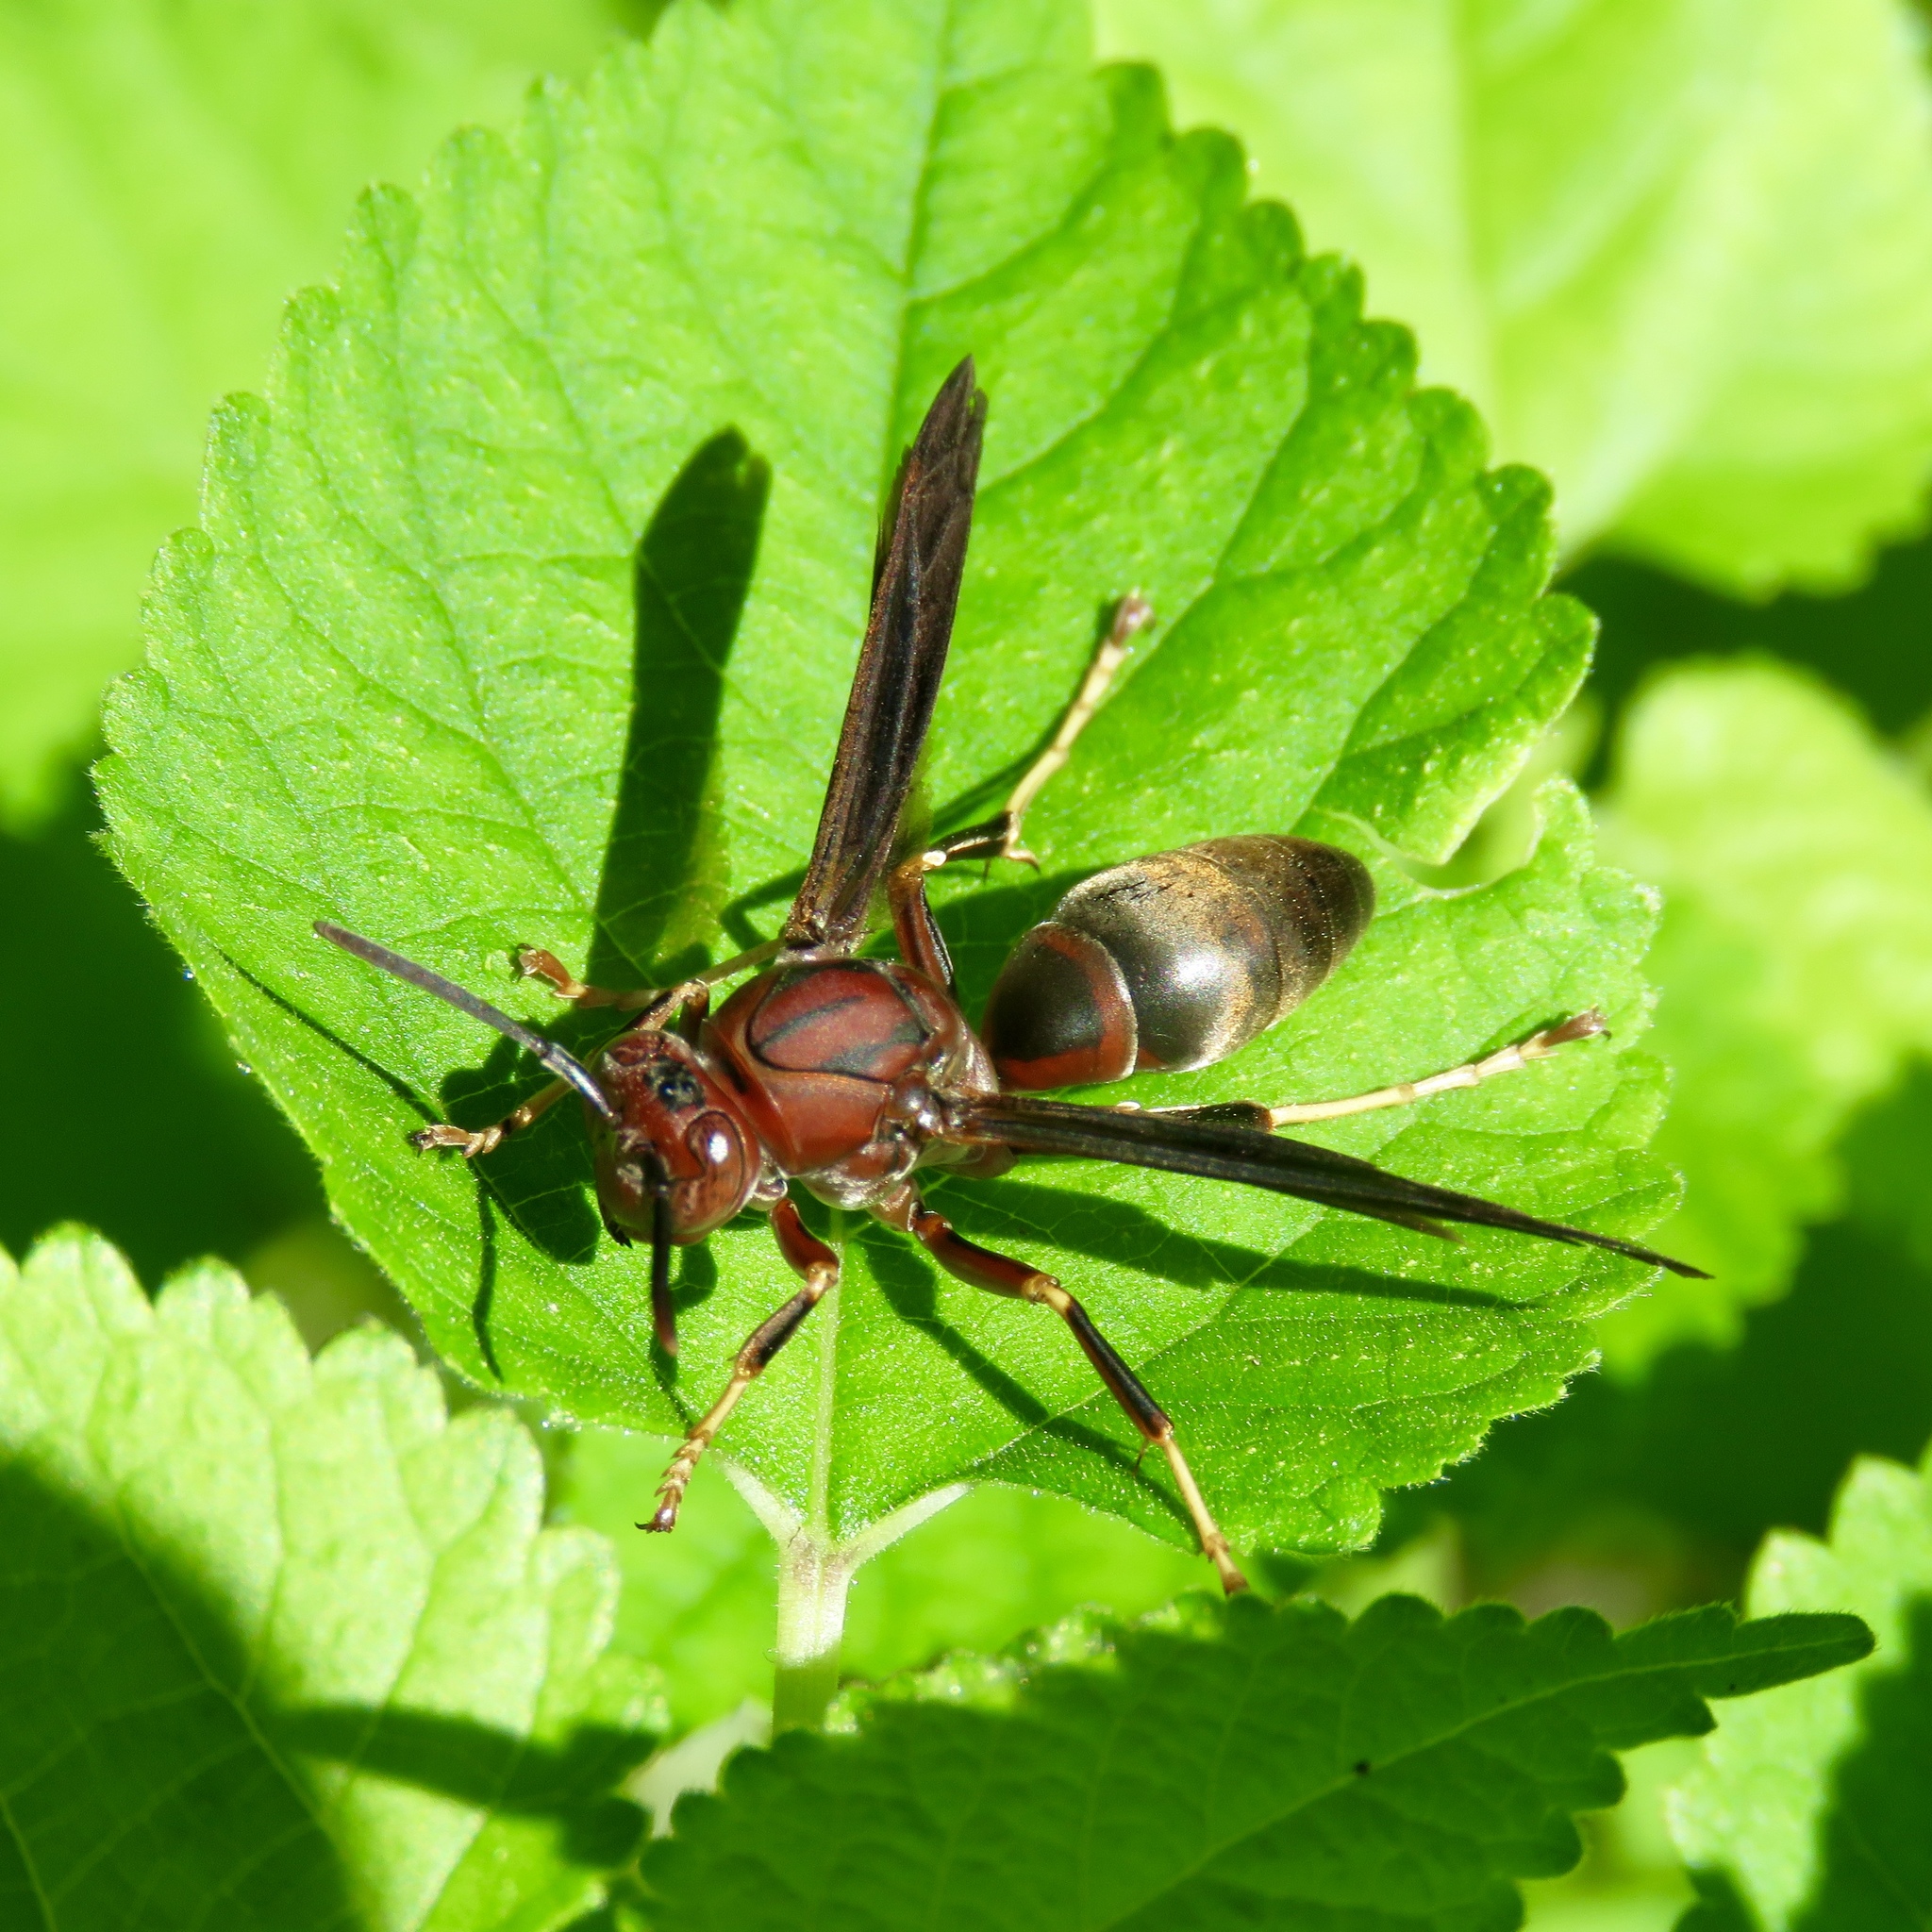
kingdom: Animalia
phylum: Arthropoda
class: Insecta
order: Hymenoptera
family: Eumenidae
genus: Polistes
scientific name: Polistes metricus
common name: Metric paper wasp
